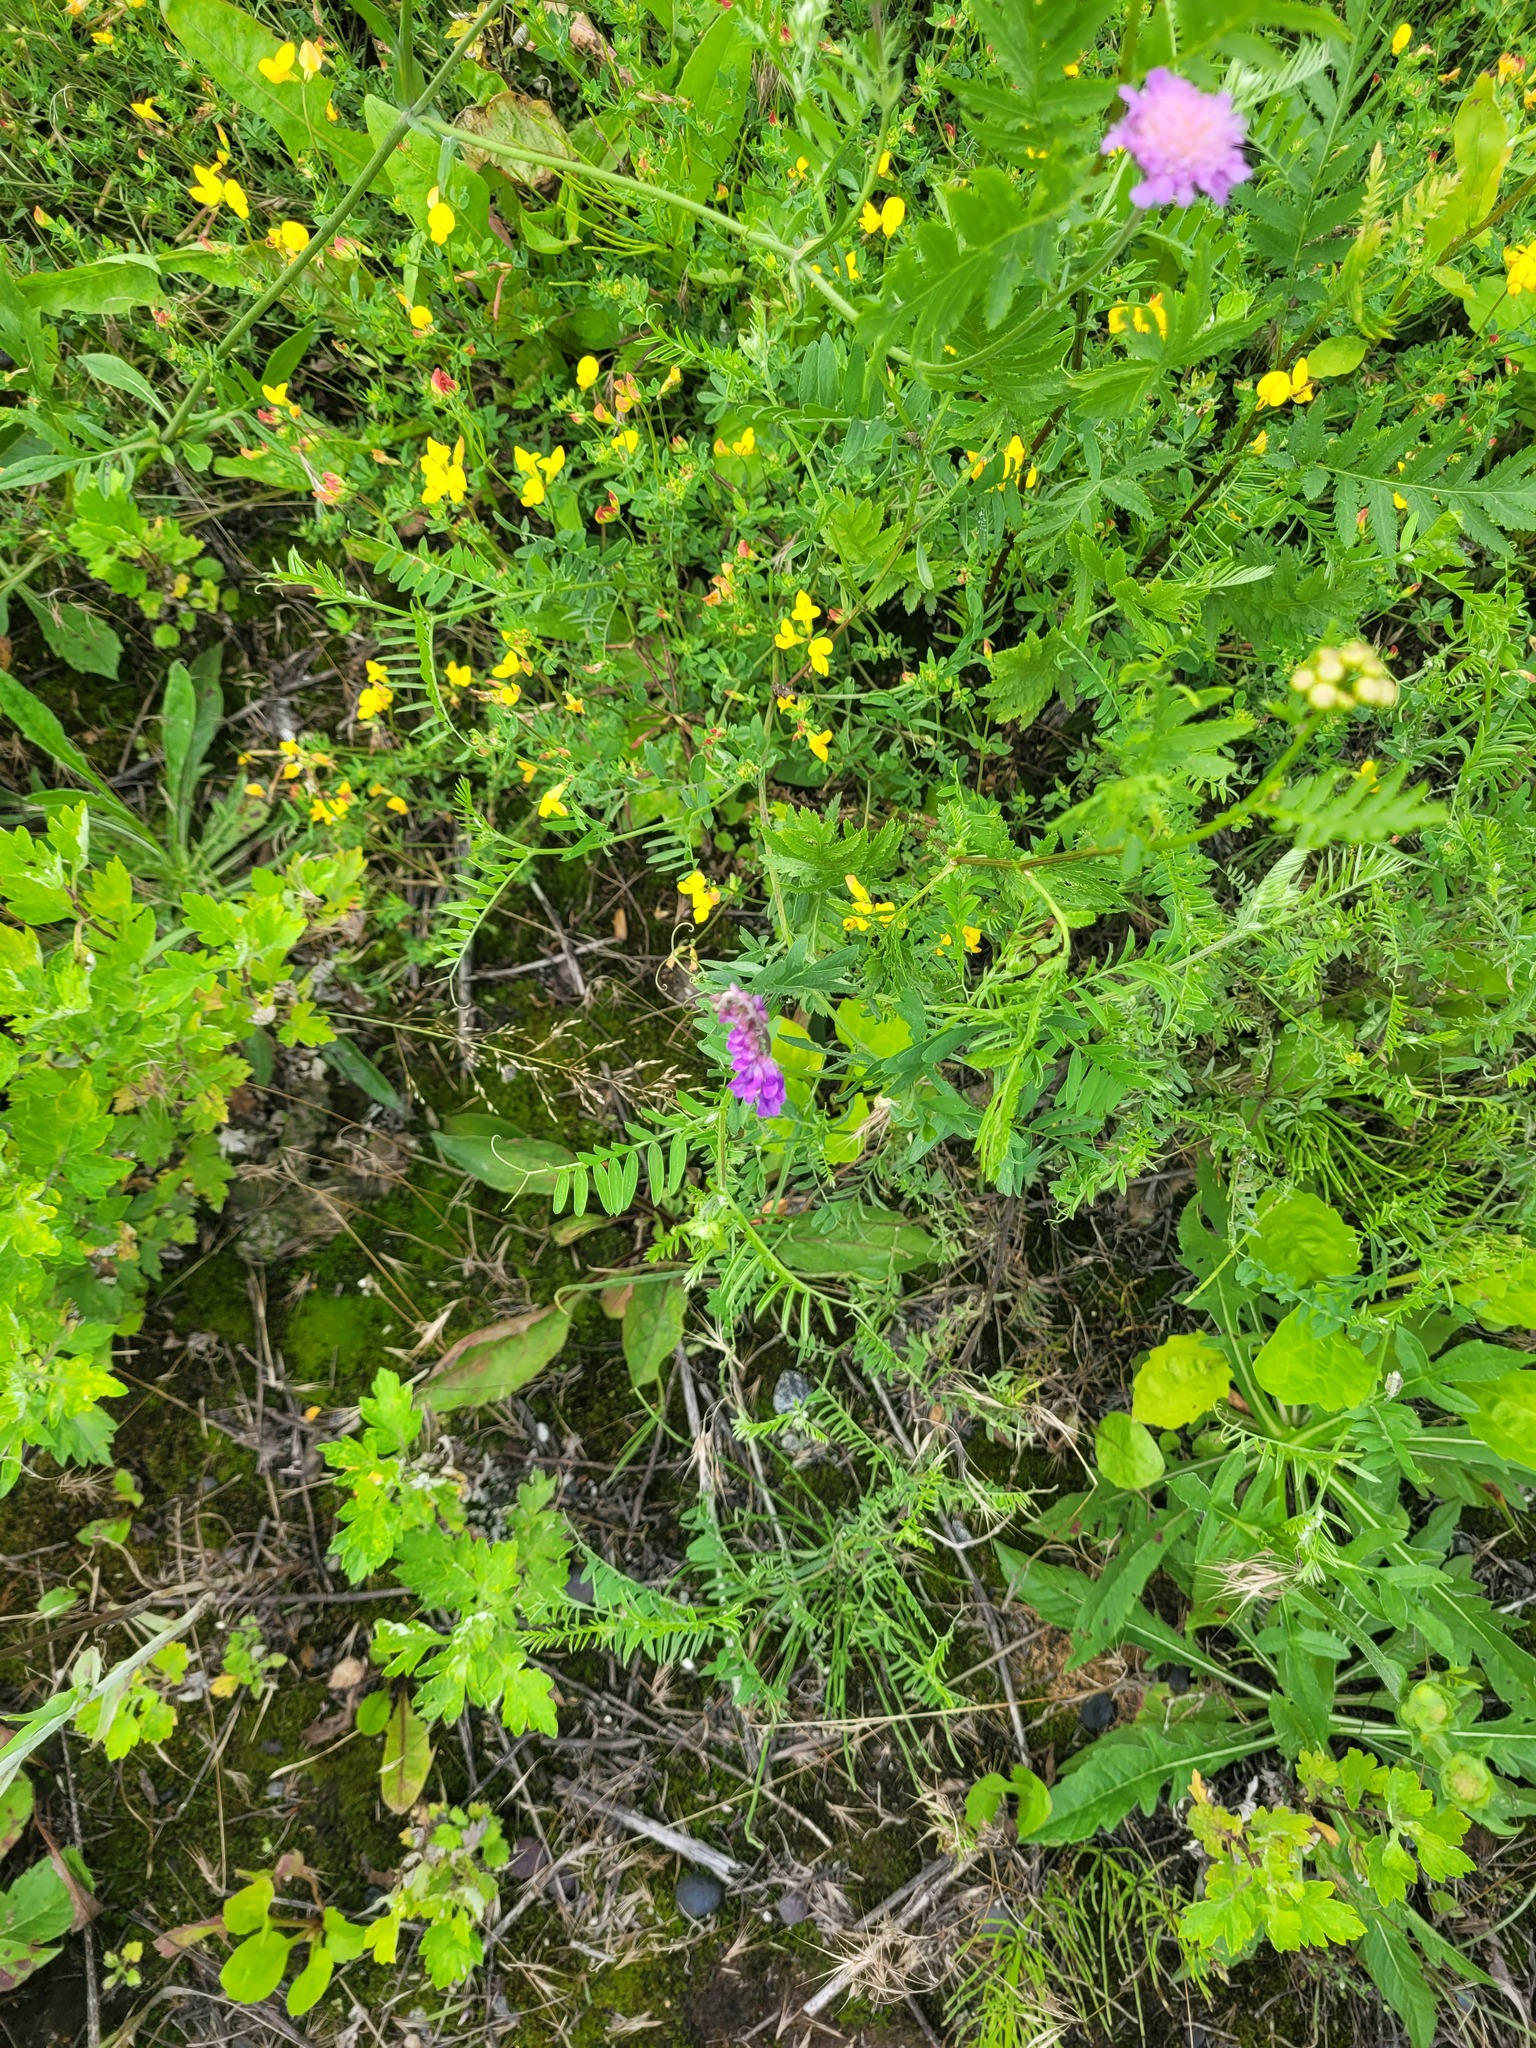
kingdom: Plantae
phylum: Tracheophyta
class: Magnoliopsida
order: Fabales
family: Fabaceae
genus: Vicia
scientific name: Vicia cracca
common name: Bird vetch
